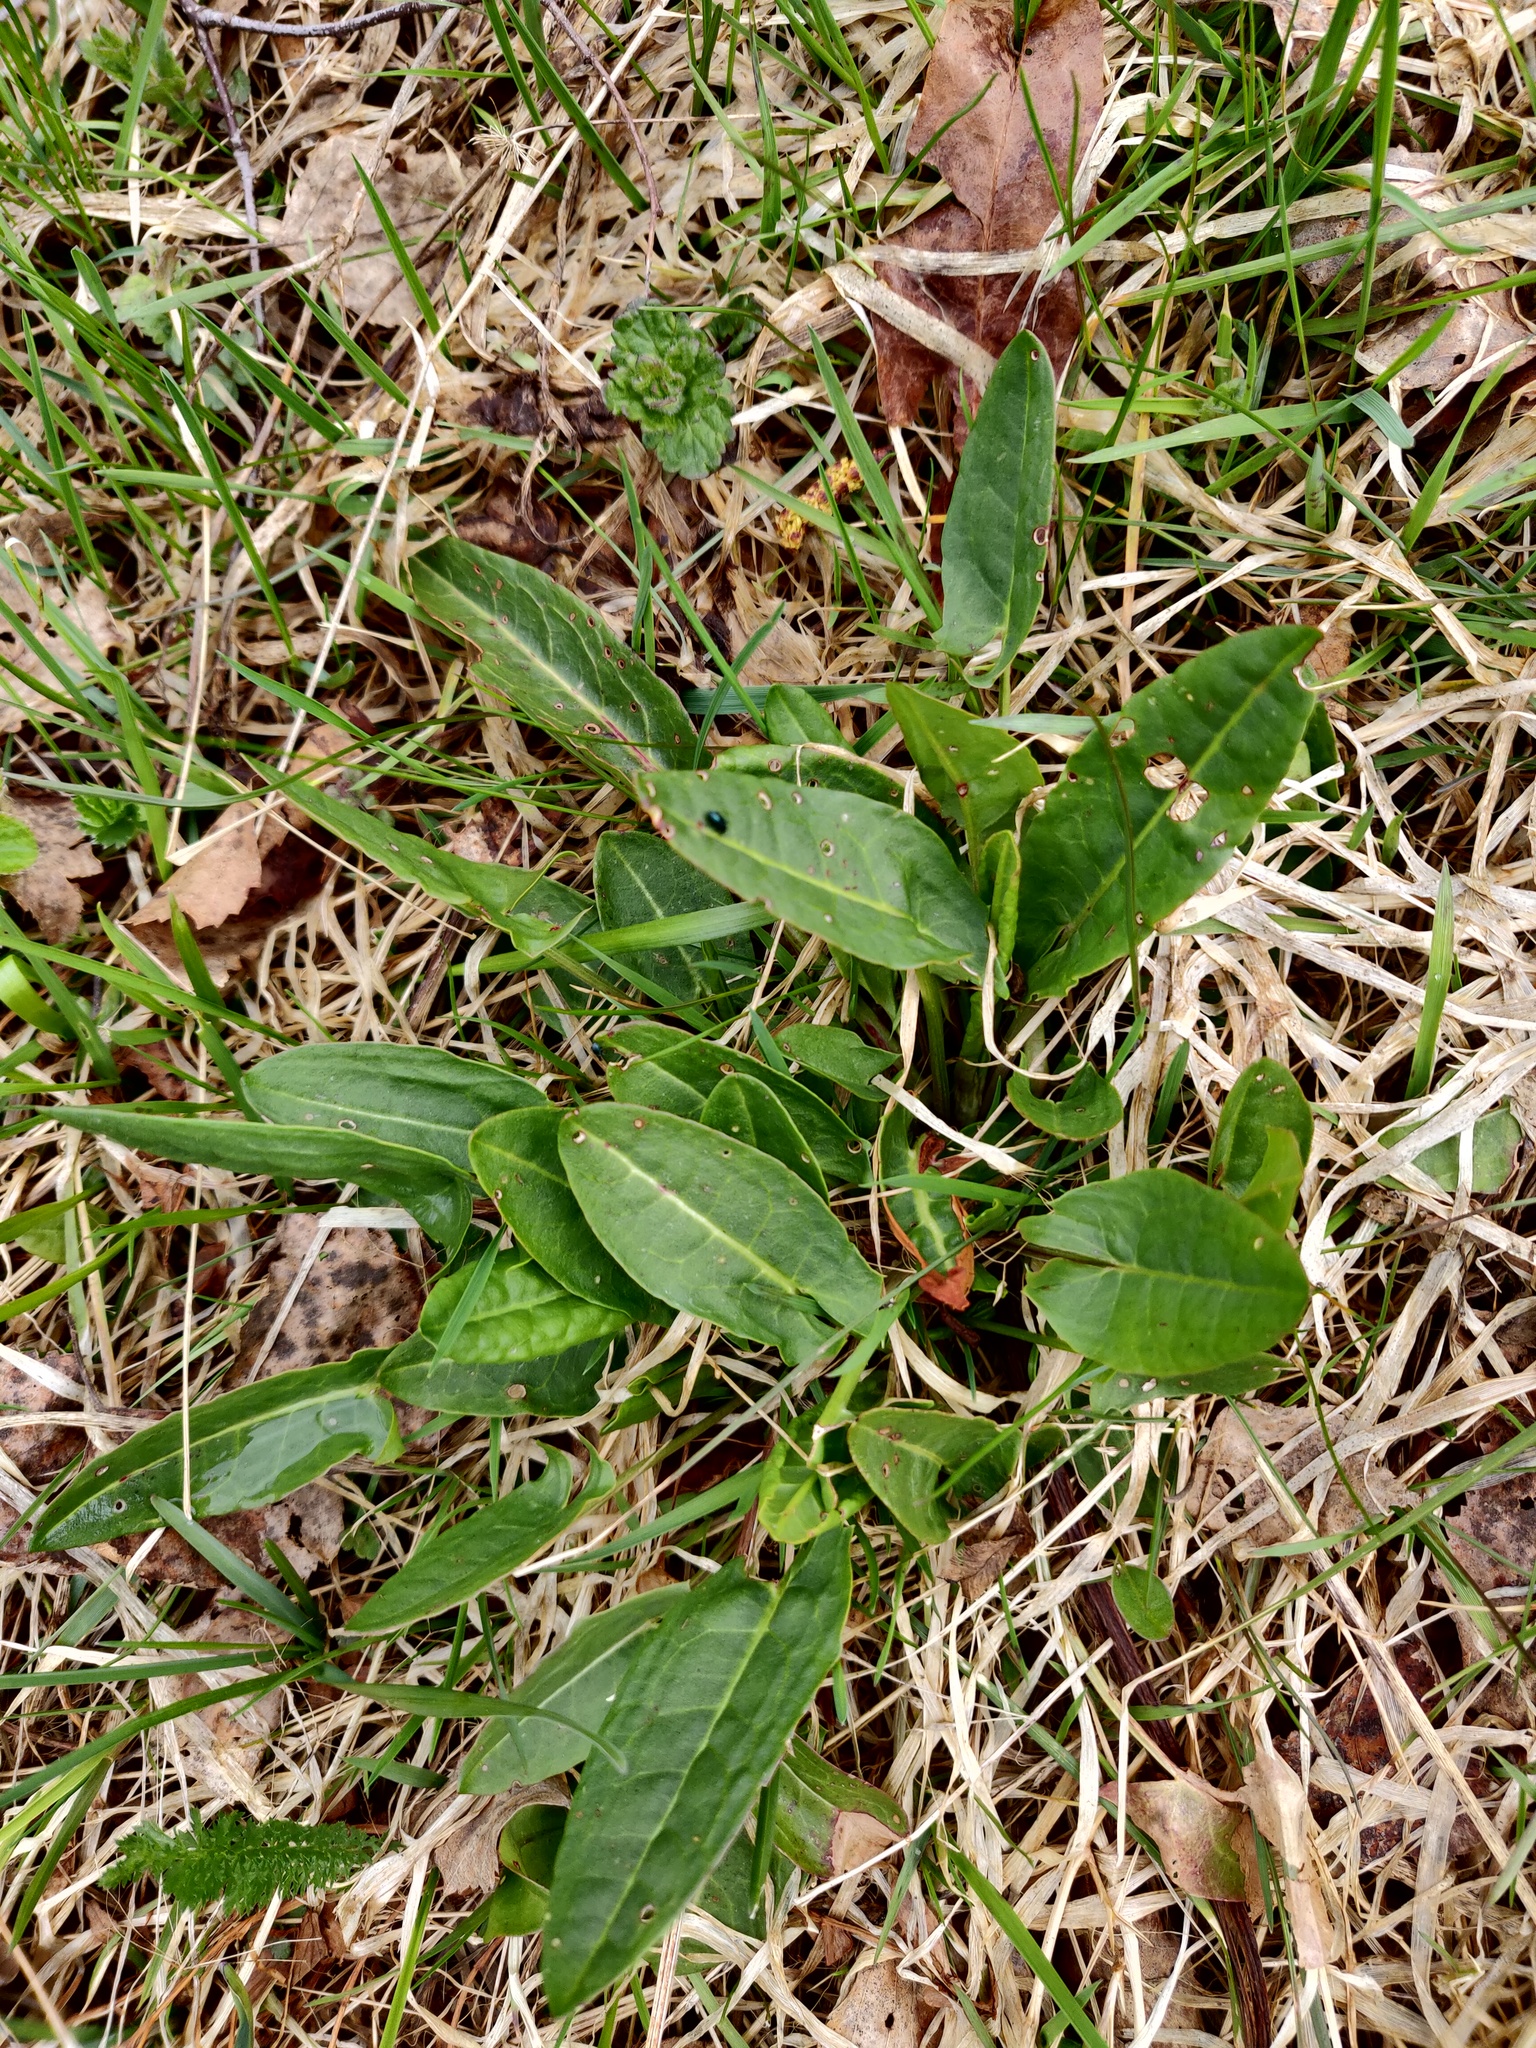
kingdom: Plantae
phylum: Tracheophyta
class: Magnoliopsida
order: Caryophyllales
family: Polygonaceae
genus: Rumex
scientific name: Rumex acetosa
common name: Garden sorrel
